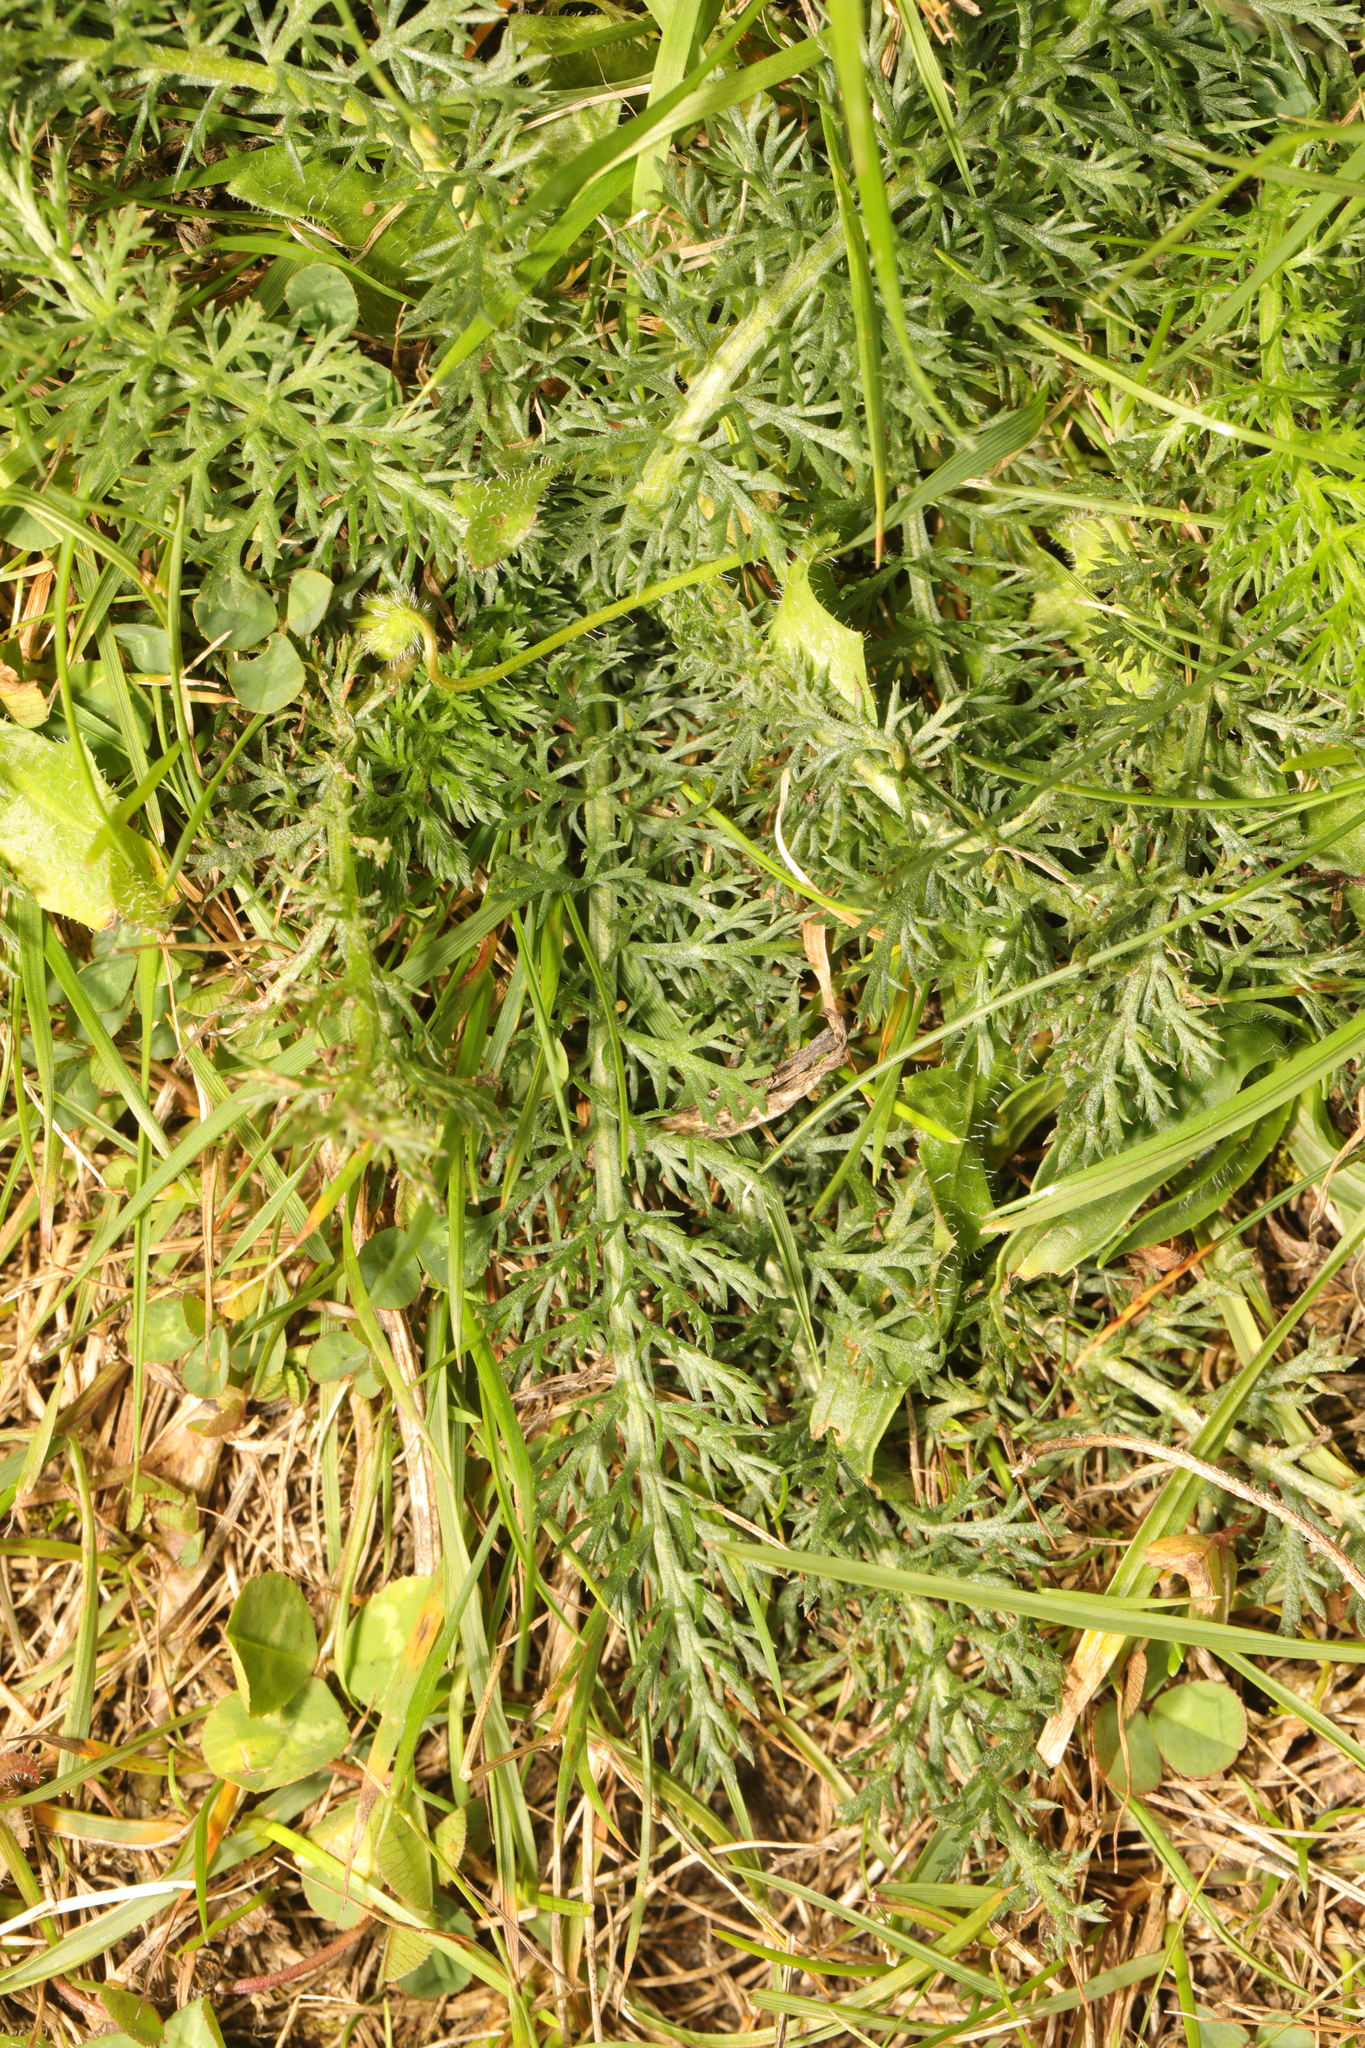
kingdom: Plantae
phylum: Tracheophyta
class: Magnoliopsida
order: Asterales
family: Asteraceae
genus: Achillea
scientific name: Achillea millefolium
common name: Yarrow
